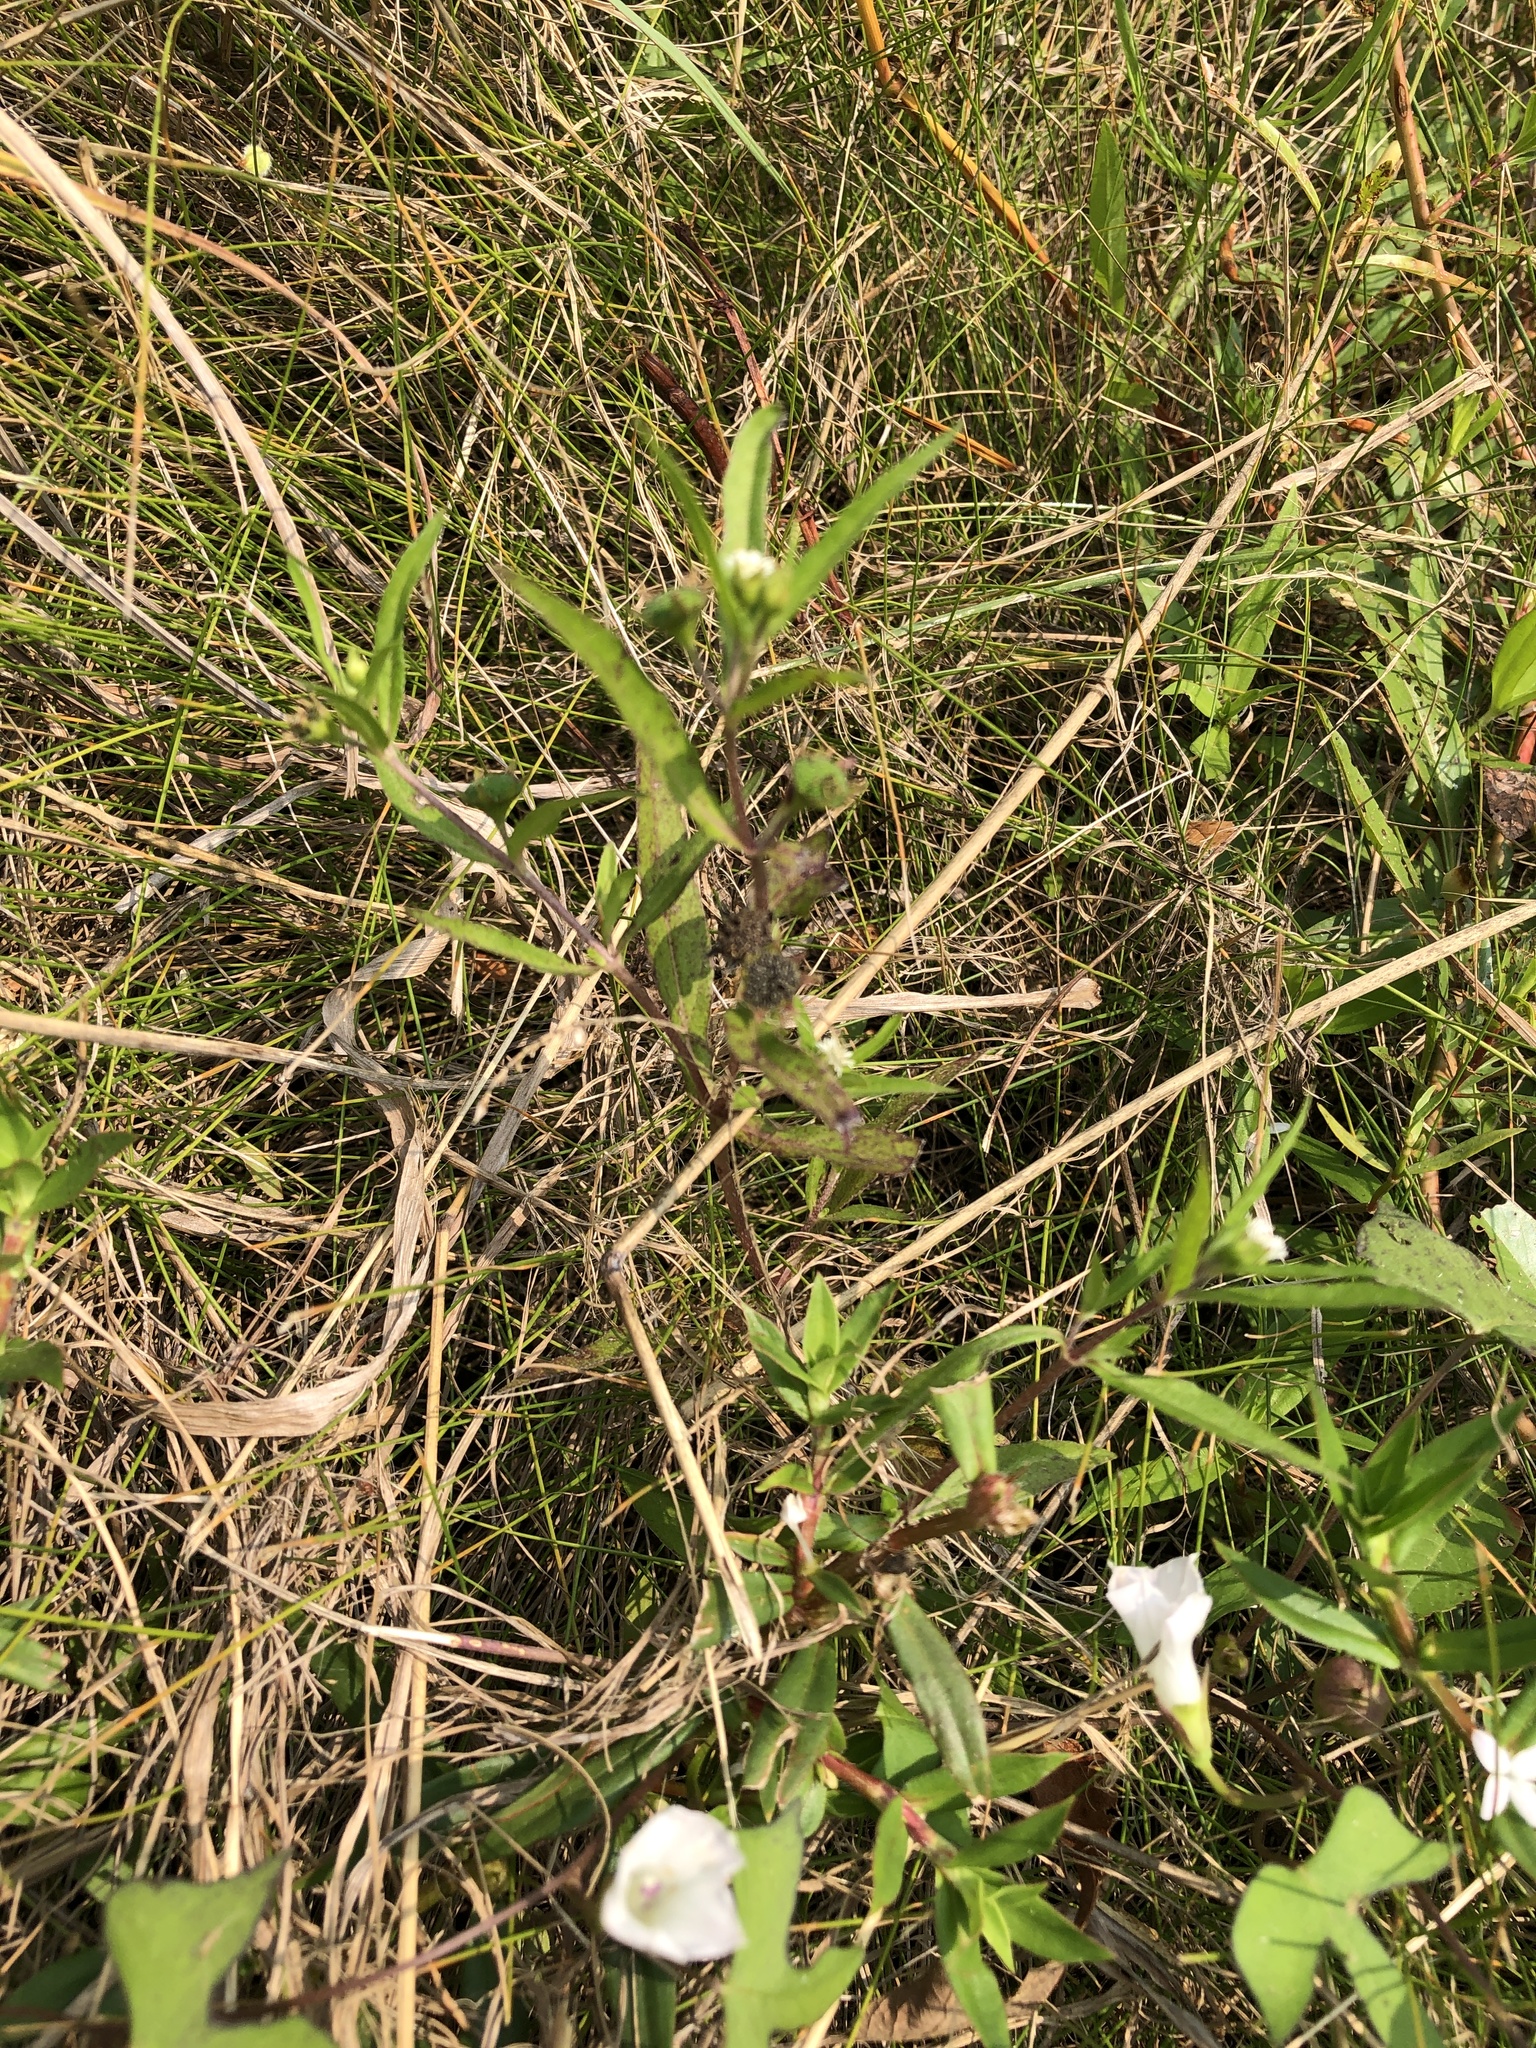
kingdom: Plantae
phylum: Tracheophyta
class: Magnoliopsida
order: Asterales
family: Asteraceae
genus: Eclipta
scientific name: Eclipta prostrata
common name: False daisy
